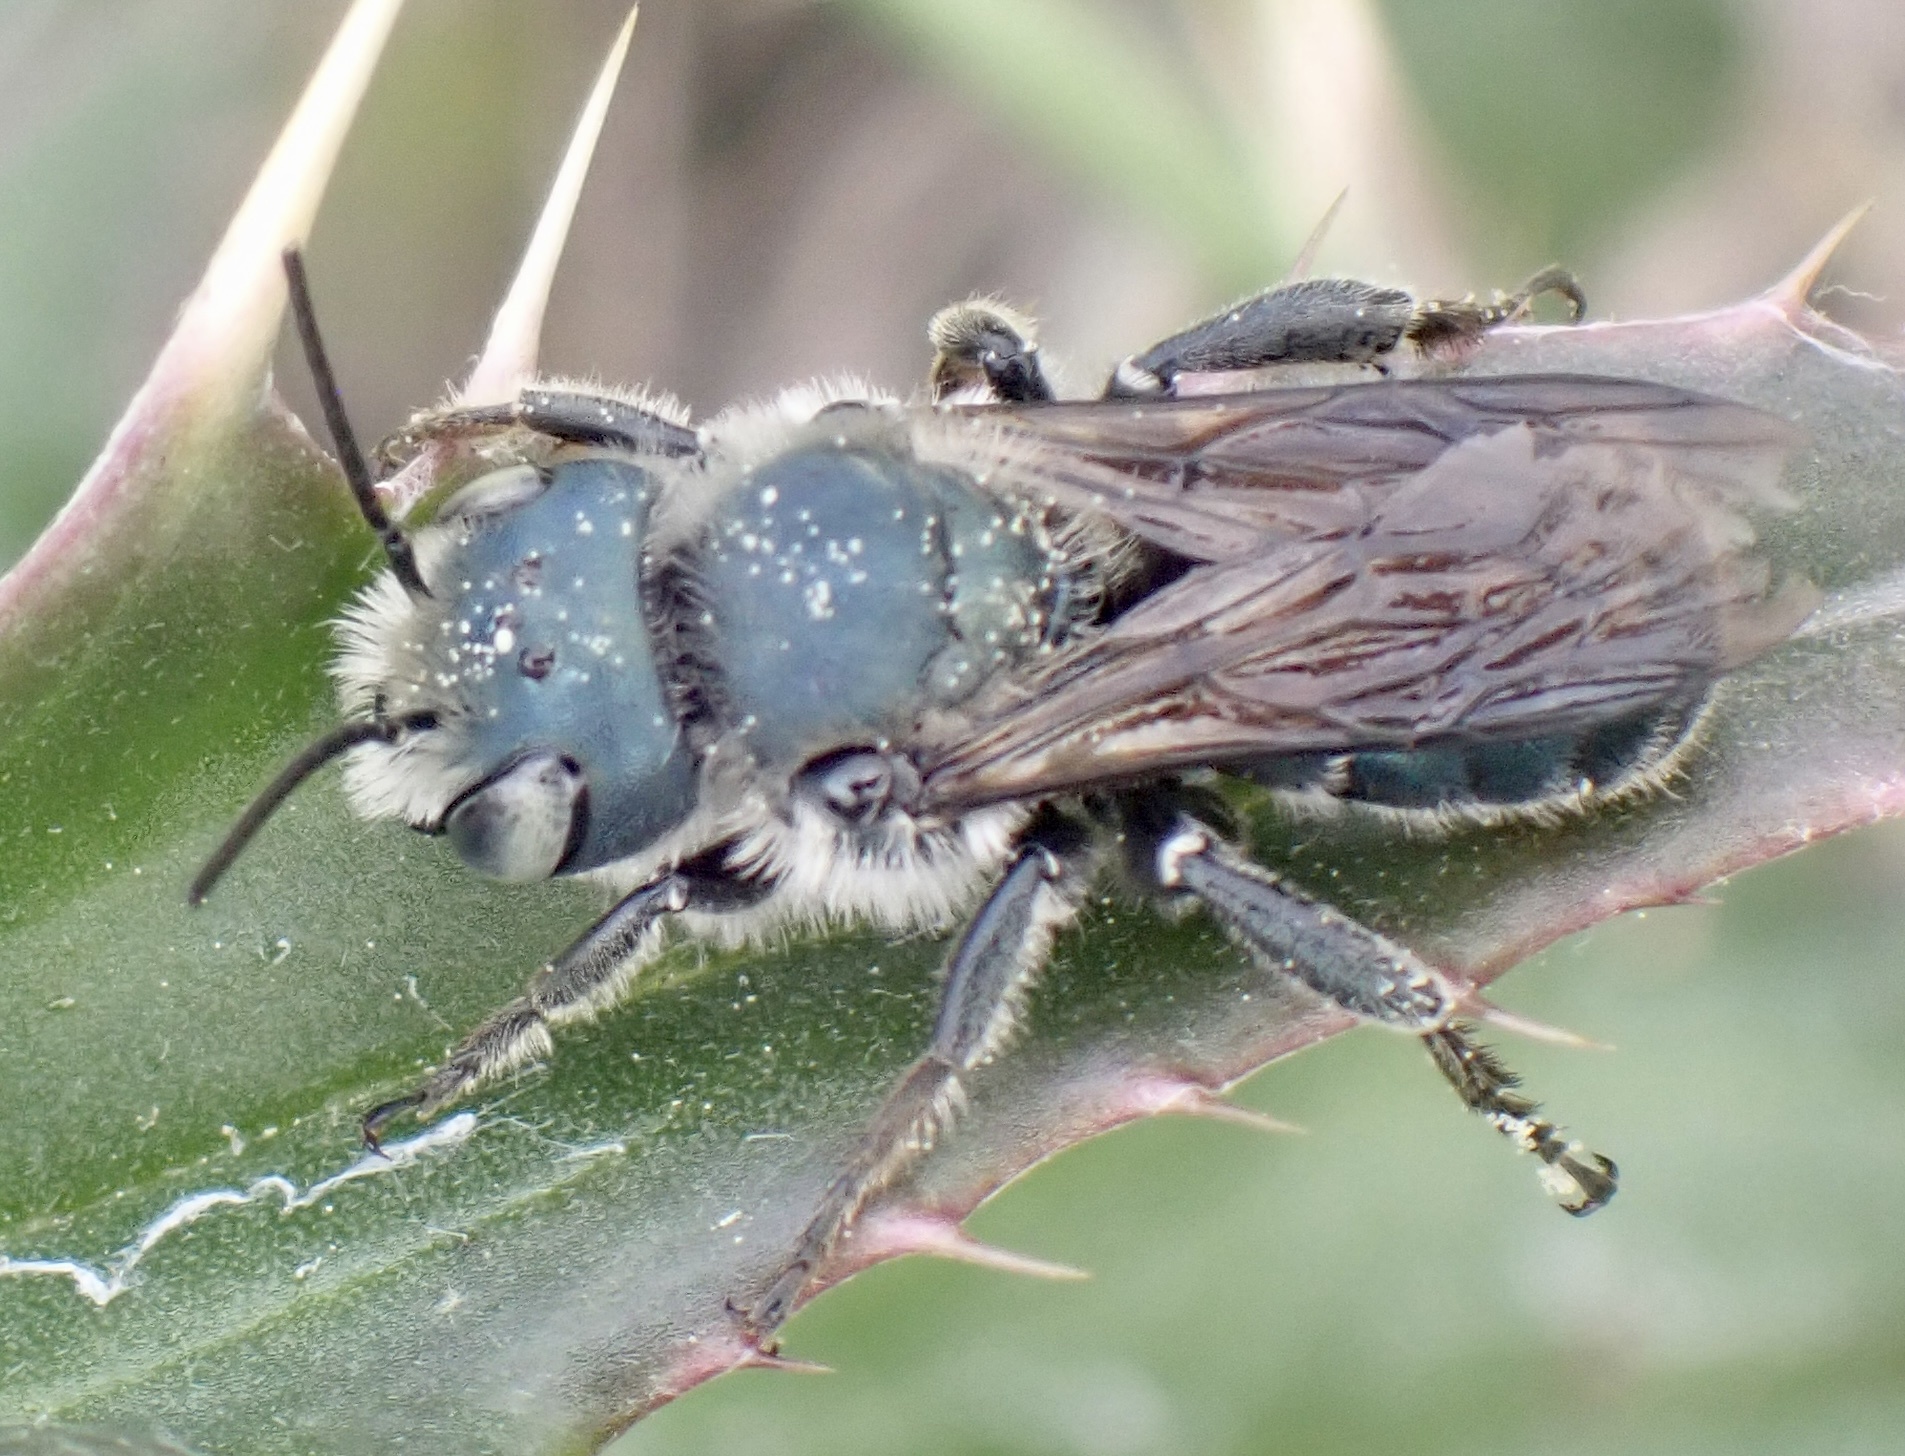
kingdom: Animalia
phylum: Arthropoda
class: Insecta
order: Hymenoptera
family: Megachilidae
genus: Osmia
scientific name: Osmia chalybea
